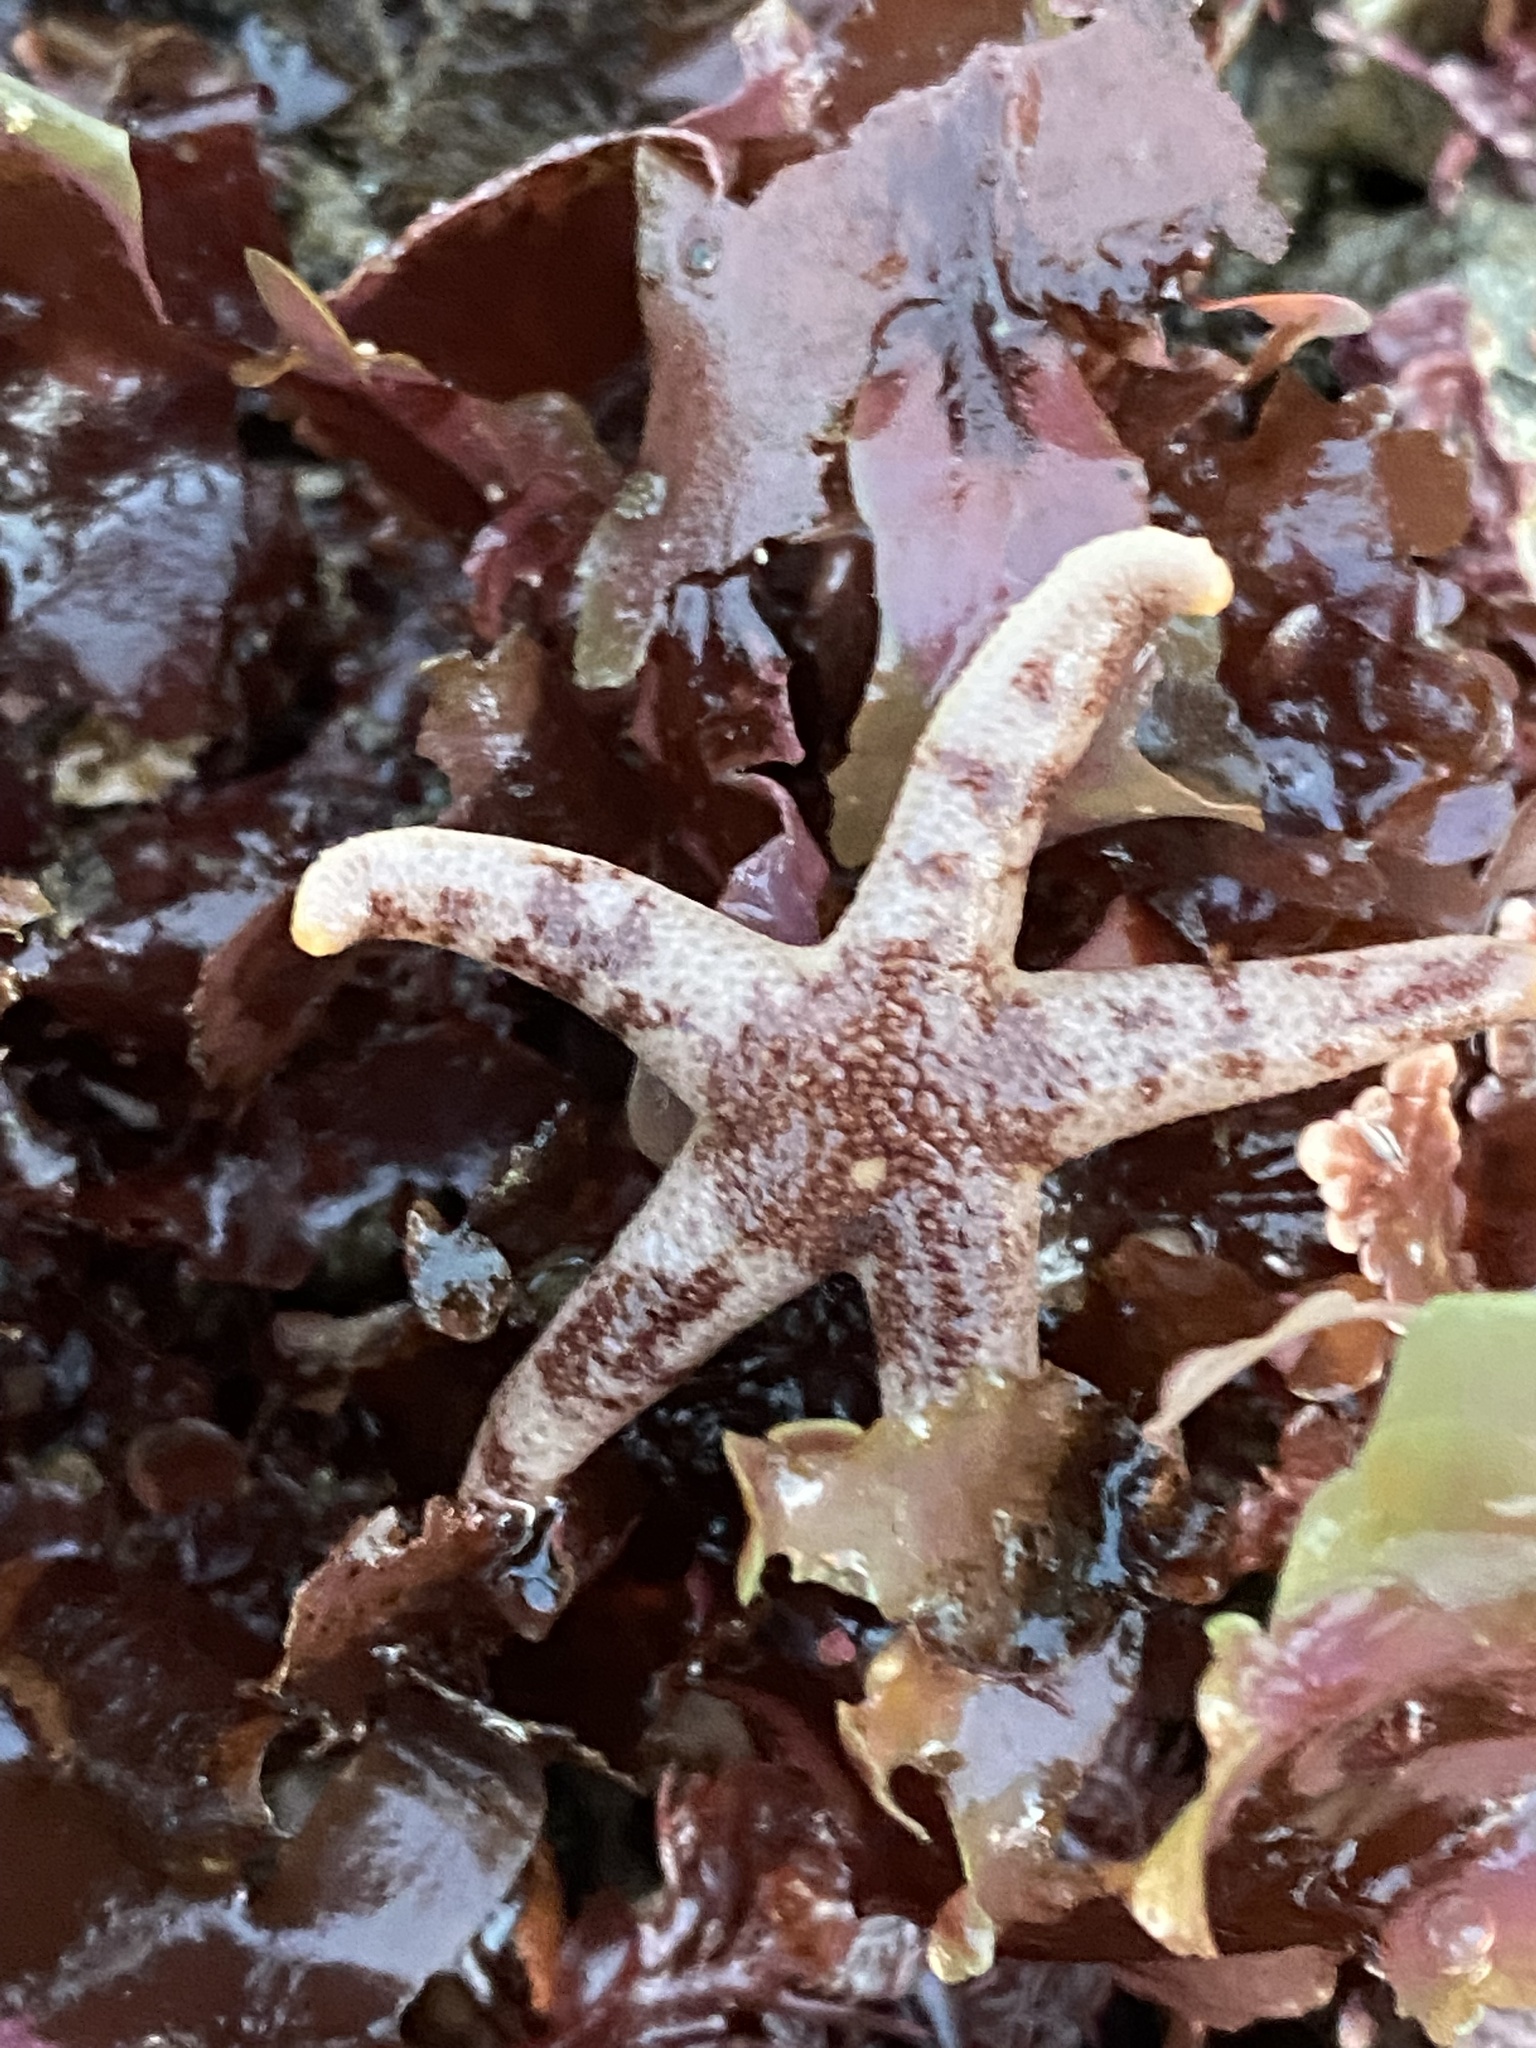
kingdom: Animalia
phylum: Echinodermata
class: Asteroidea
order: Spinulosida
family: Echinasteridae
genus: Henricia
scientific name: Henricia pumila
